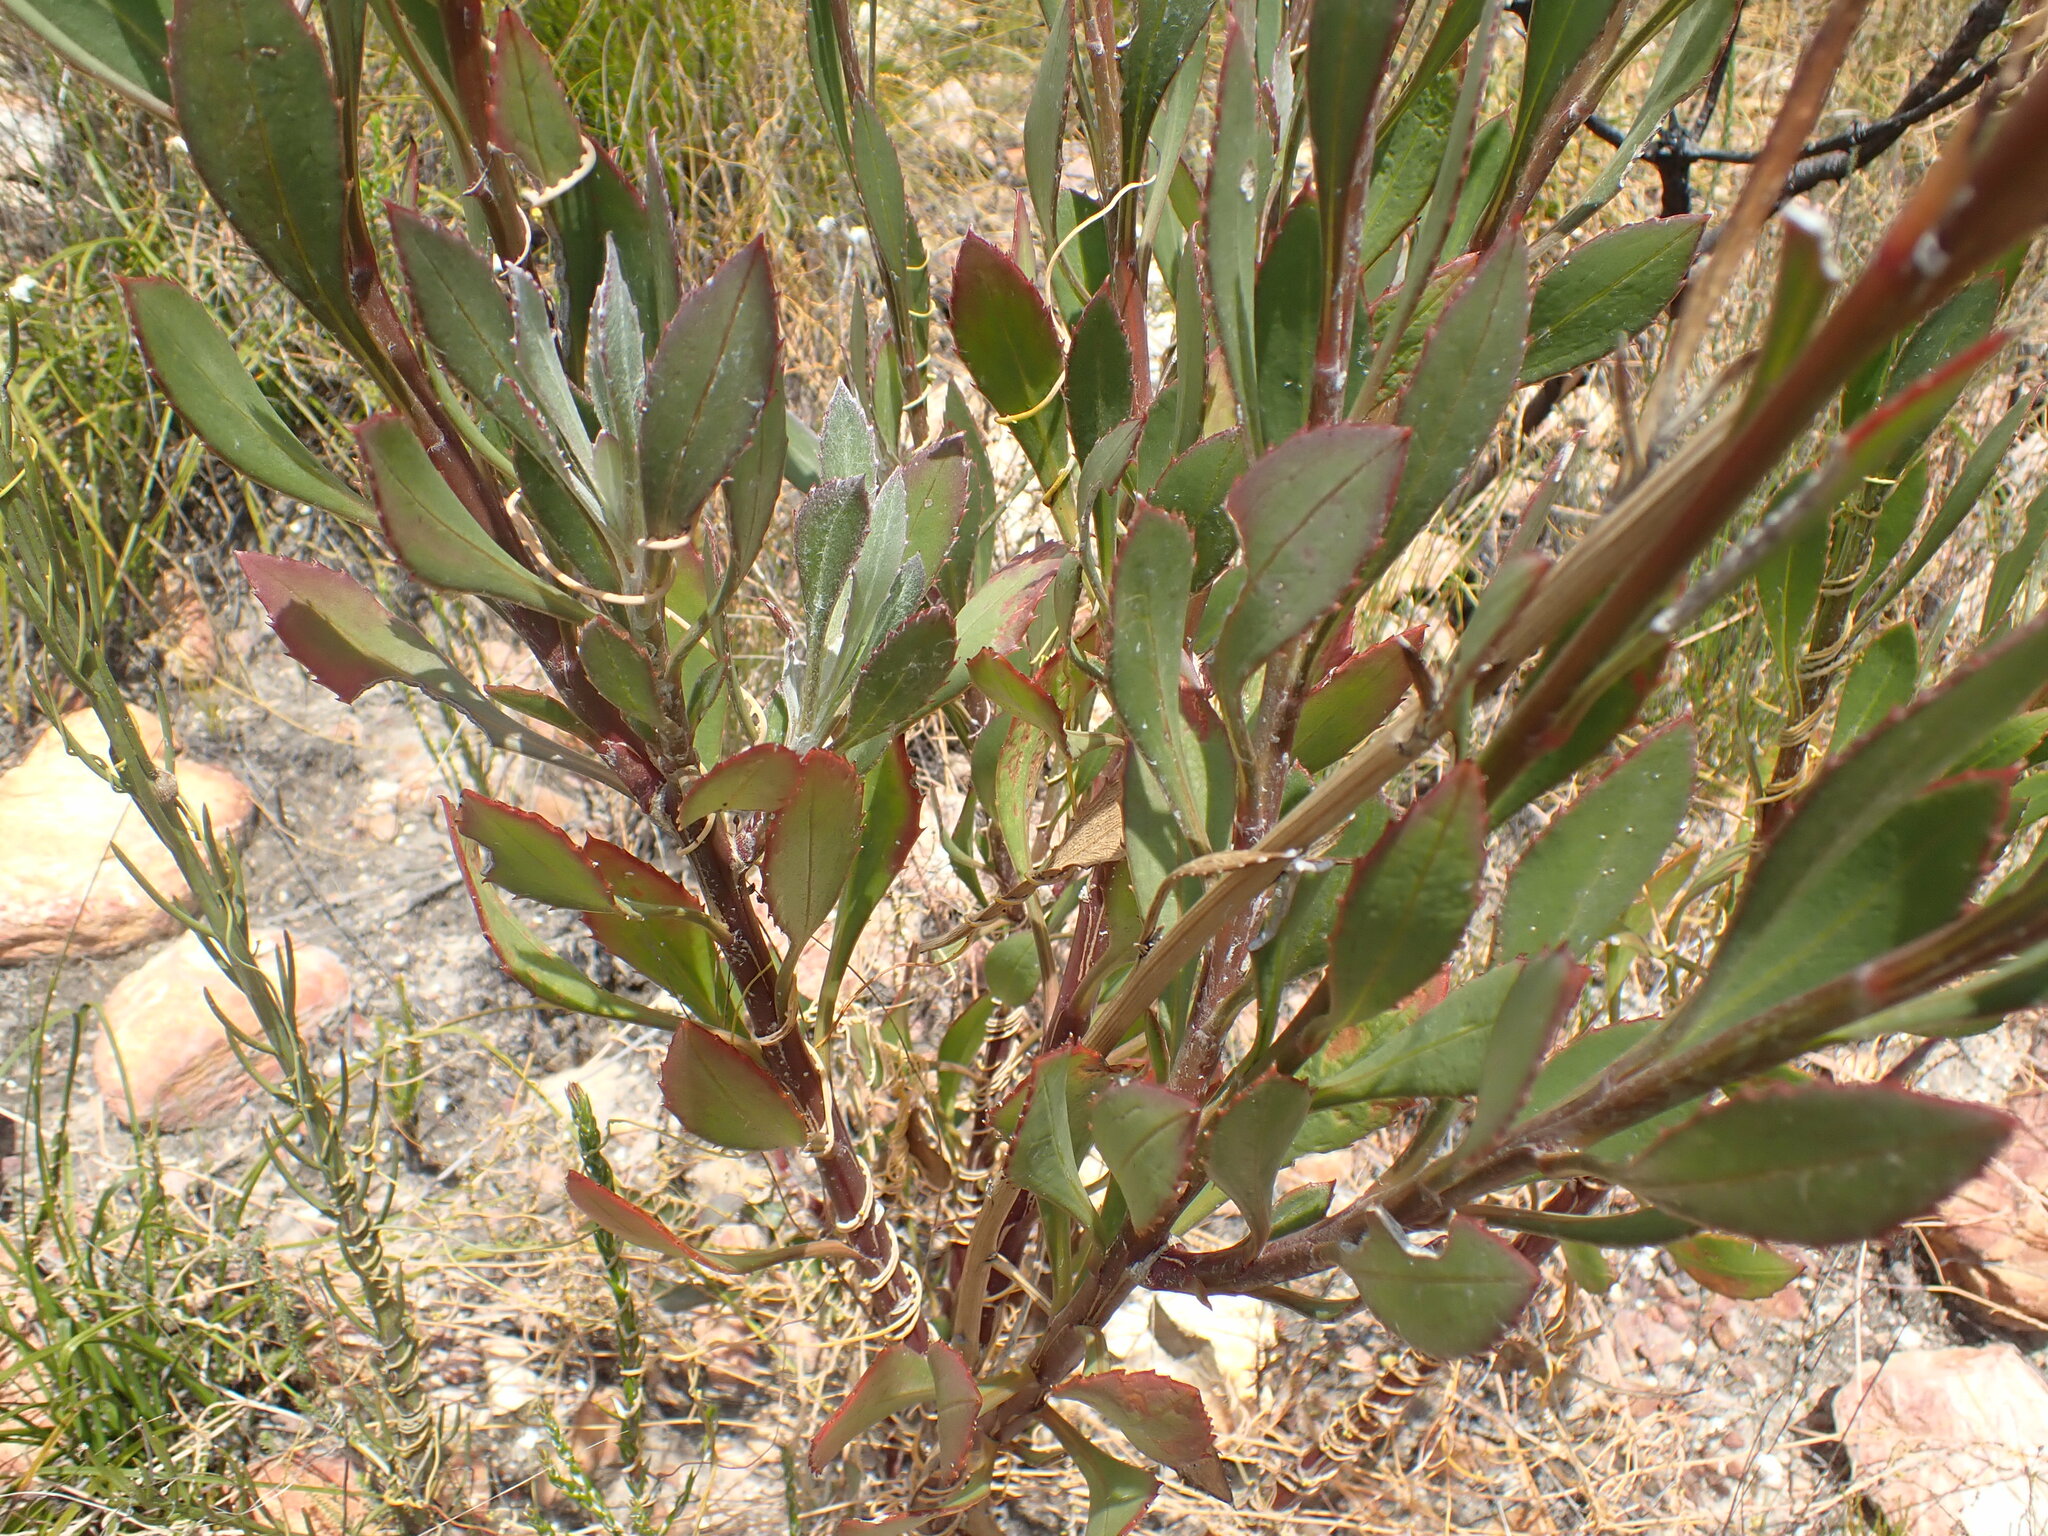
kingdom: Plantae
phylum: Tracheophyta
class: Magnoliopsida
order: Asterales
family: Asteraceae
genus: Osteospermum
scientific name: Osteospermum junceum
